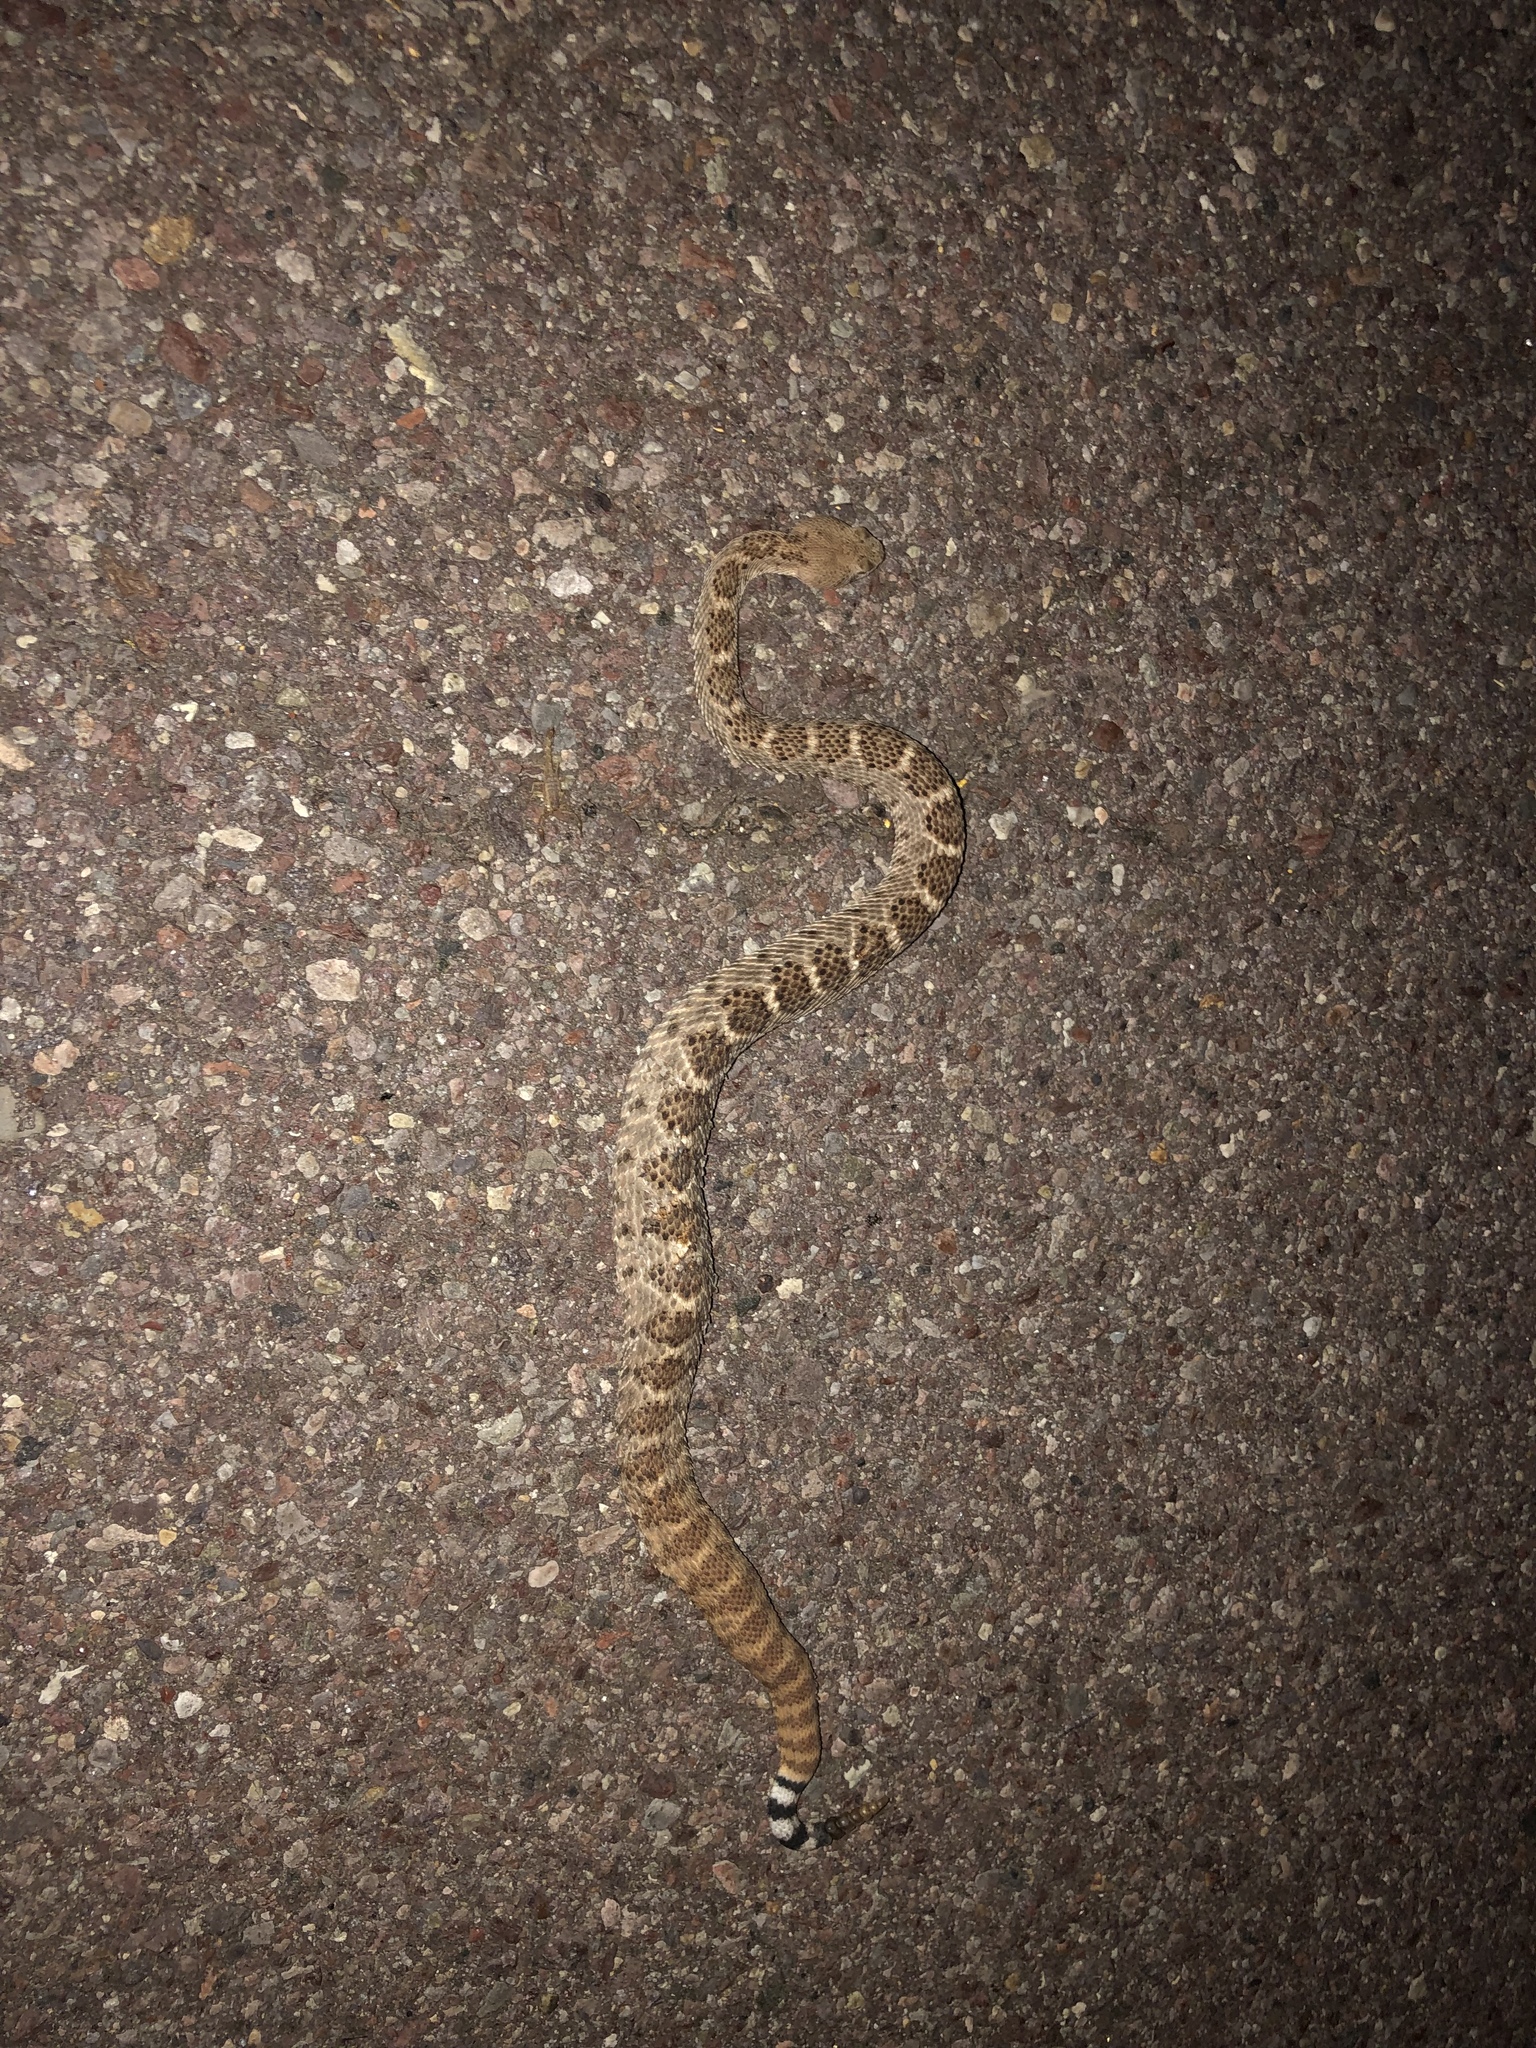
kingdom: Animalia
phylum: Chordata
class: Squamata
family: Viperidae
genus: Crotalus
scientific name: Crotalus atrox
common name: Western diamond-backed rattlesnake
